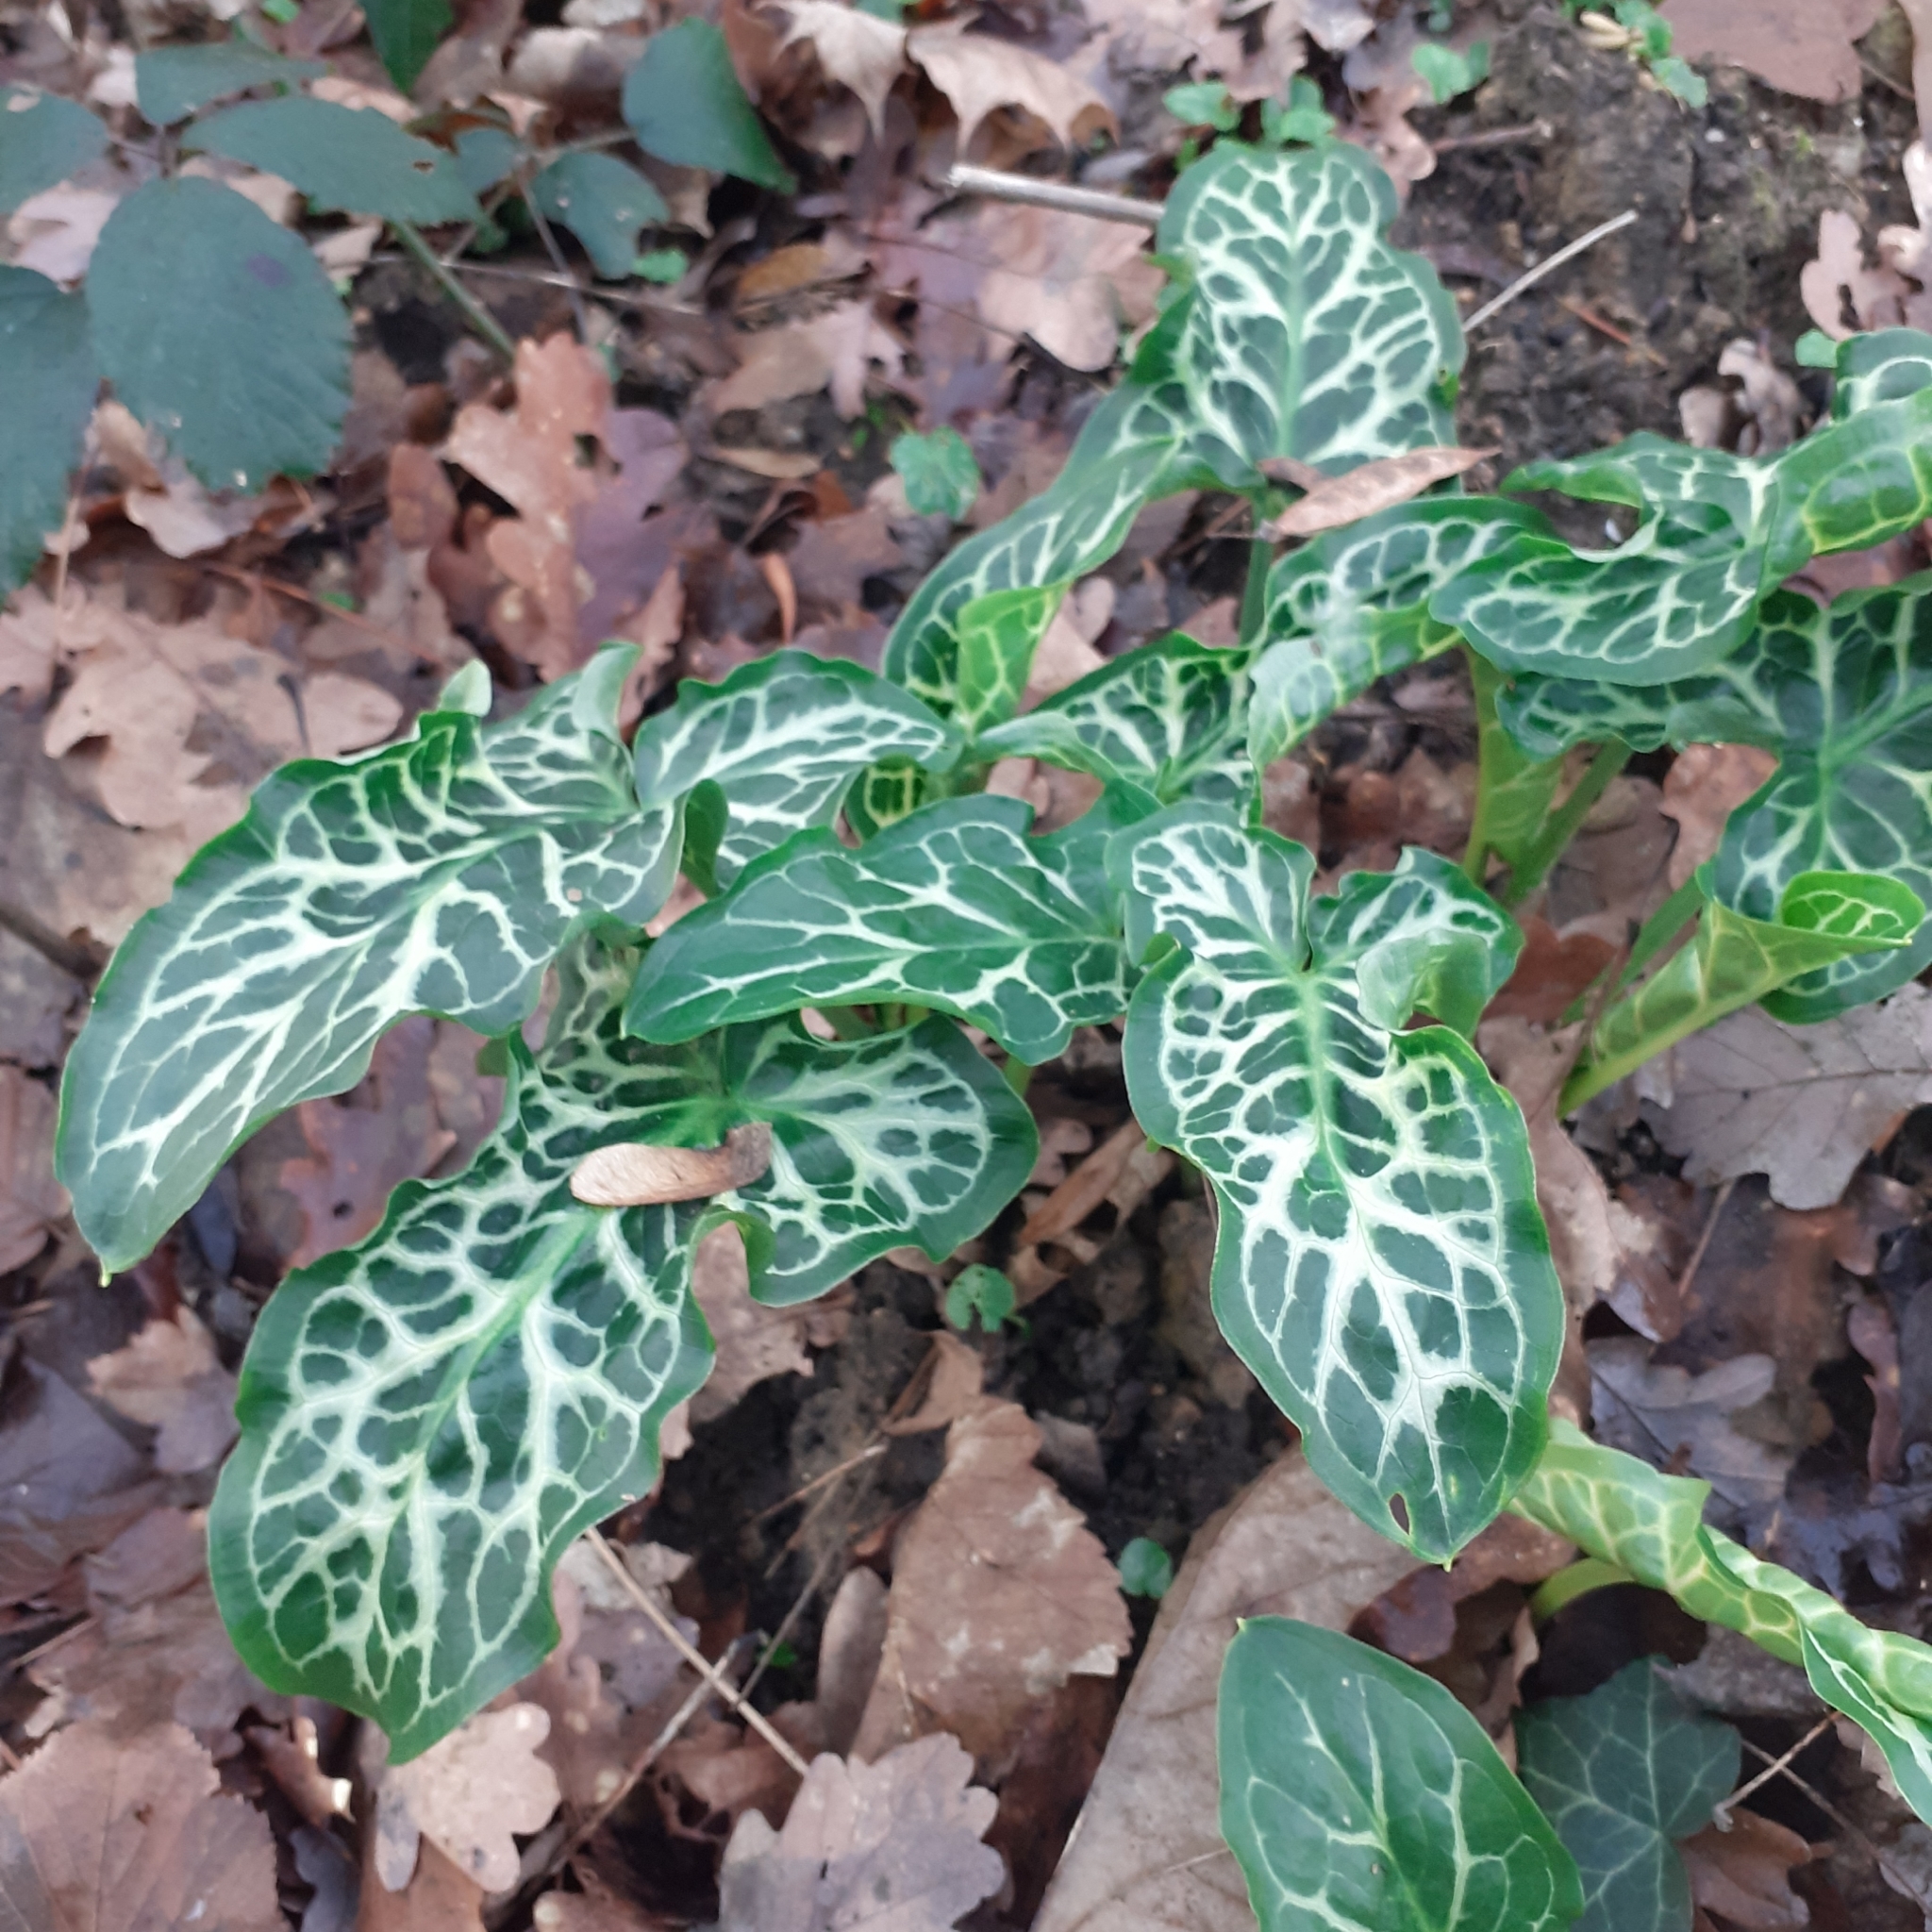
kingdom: Plantae
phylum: Tracheophyta
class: Liliopsida
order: Alismatales
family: Araceae
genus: Arum
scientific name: Arum italicum
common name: Italian lords-and-ladies
